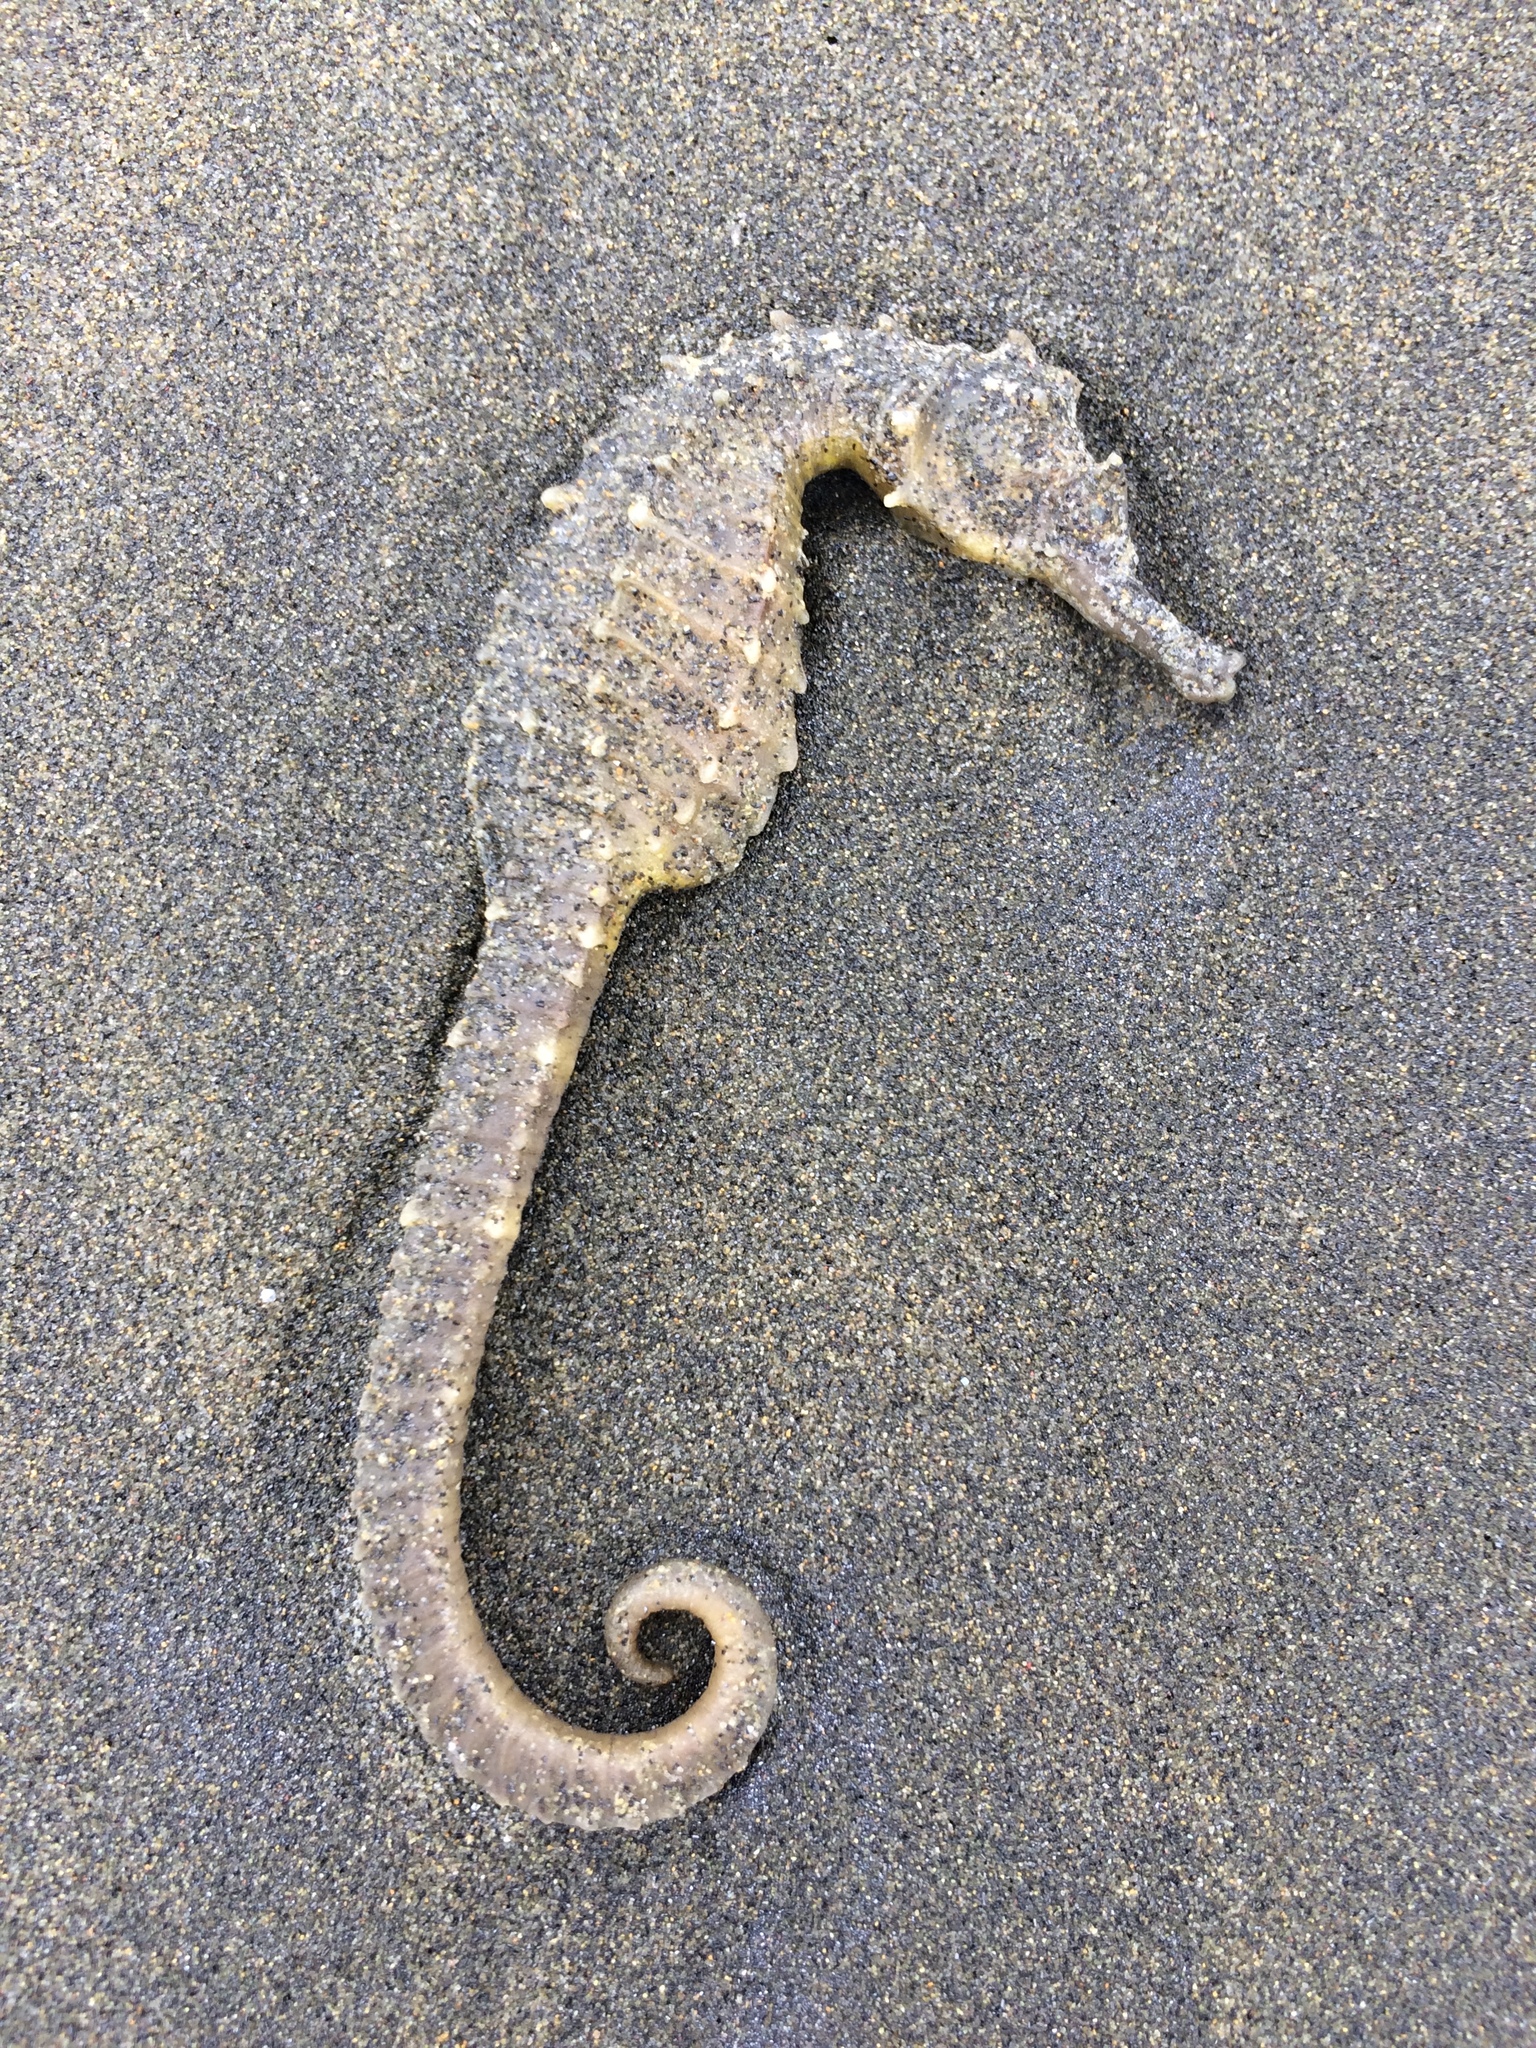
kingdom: Animalia
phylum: Chordata
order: Syngnathiformes
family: Syngnathidae
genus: Hippocampus
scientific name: Hippocampus abdominalis
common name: Big-belly seahorse
